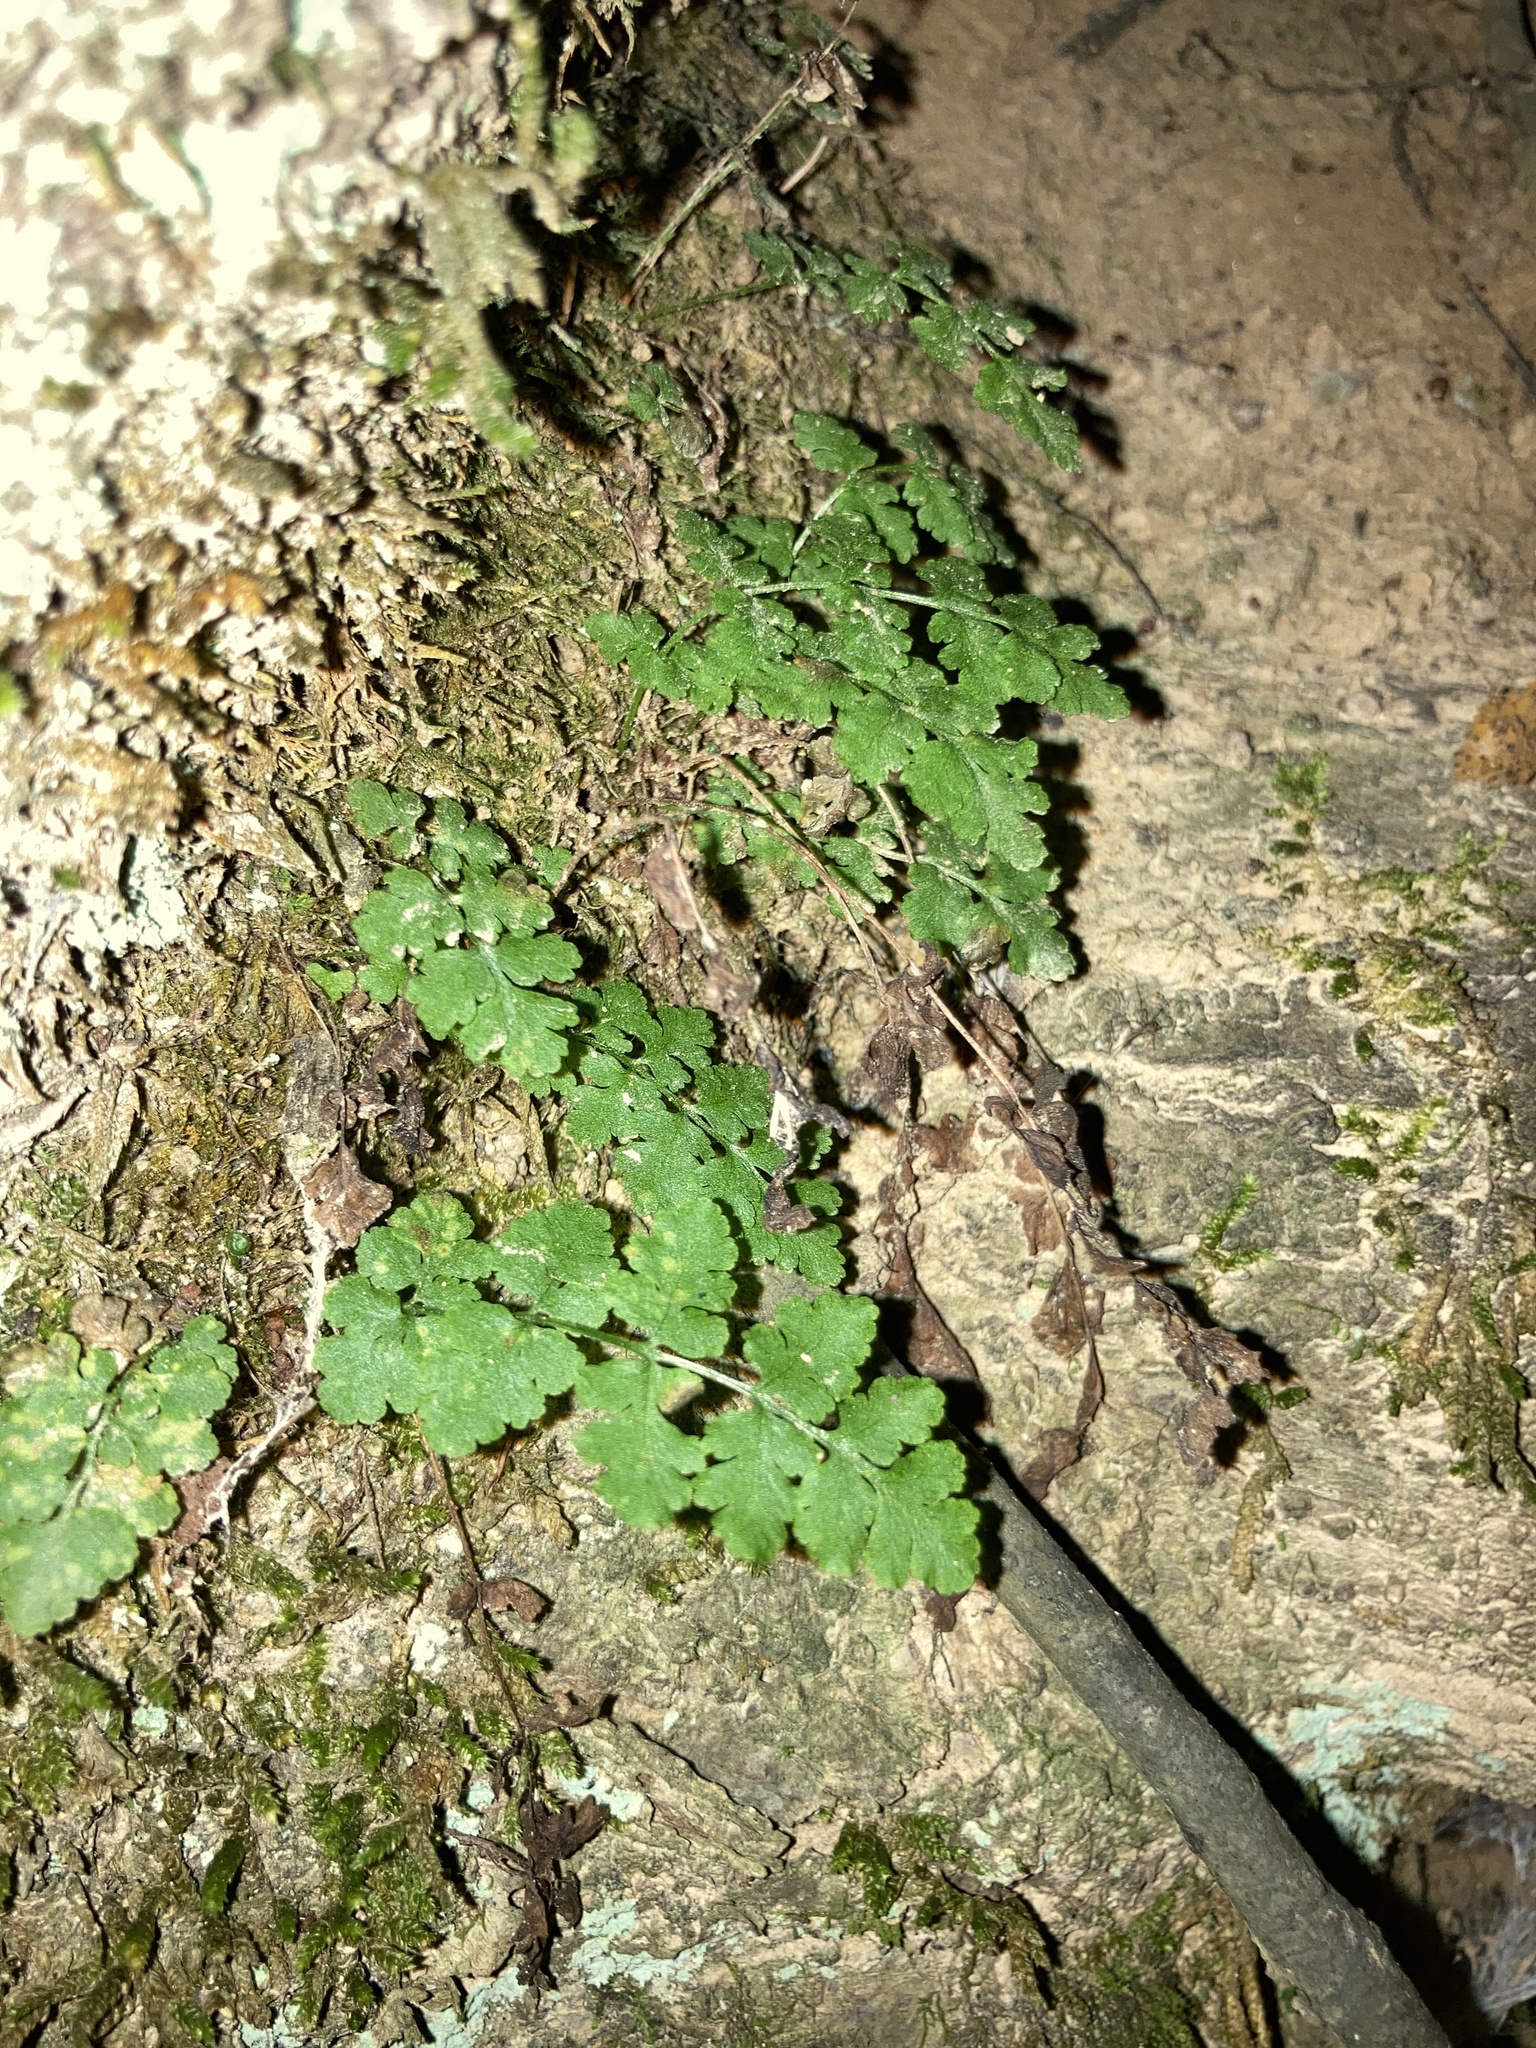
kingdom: Plantae
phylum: Tracheophyta
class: Polypodiopsida
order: Polypodiales
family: Woodsiaceae
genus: Physematium
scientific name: Physematium obtusum
